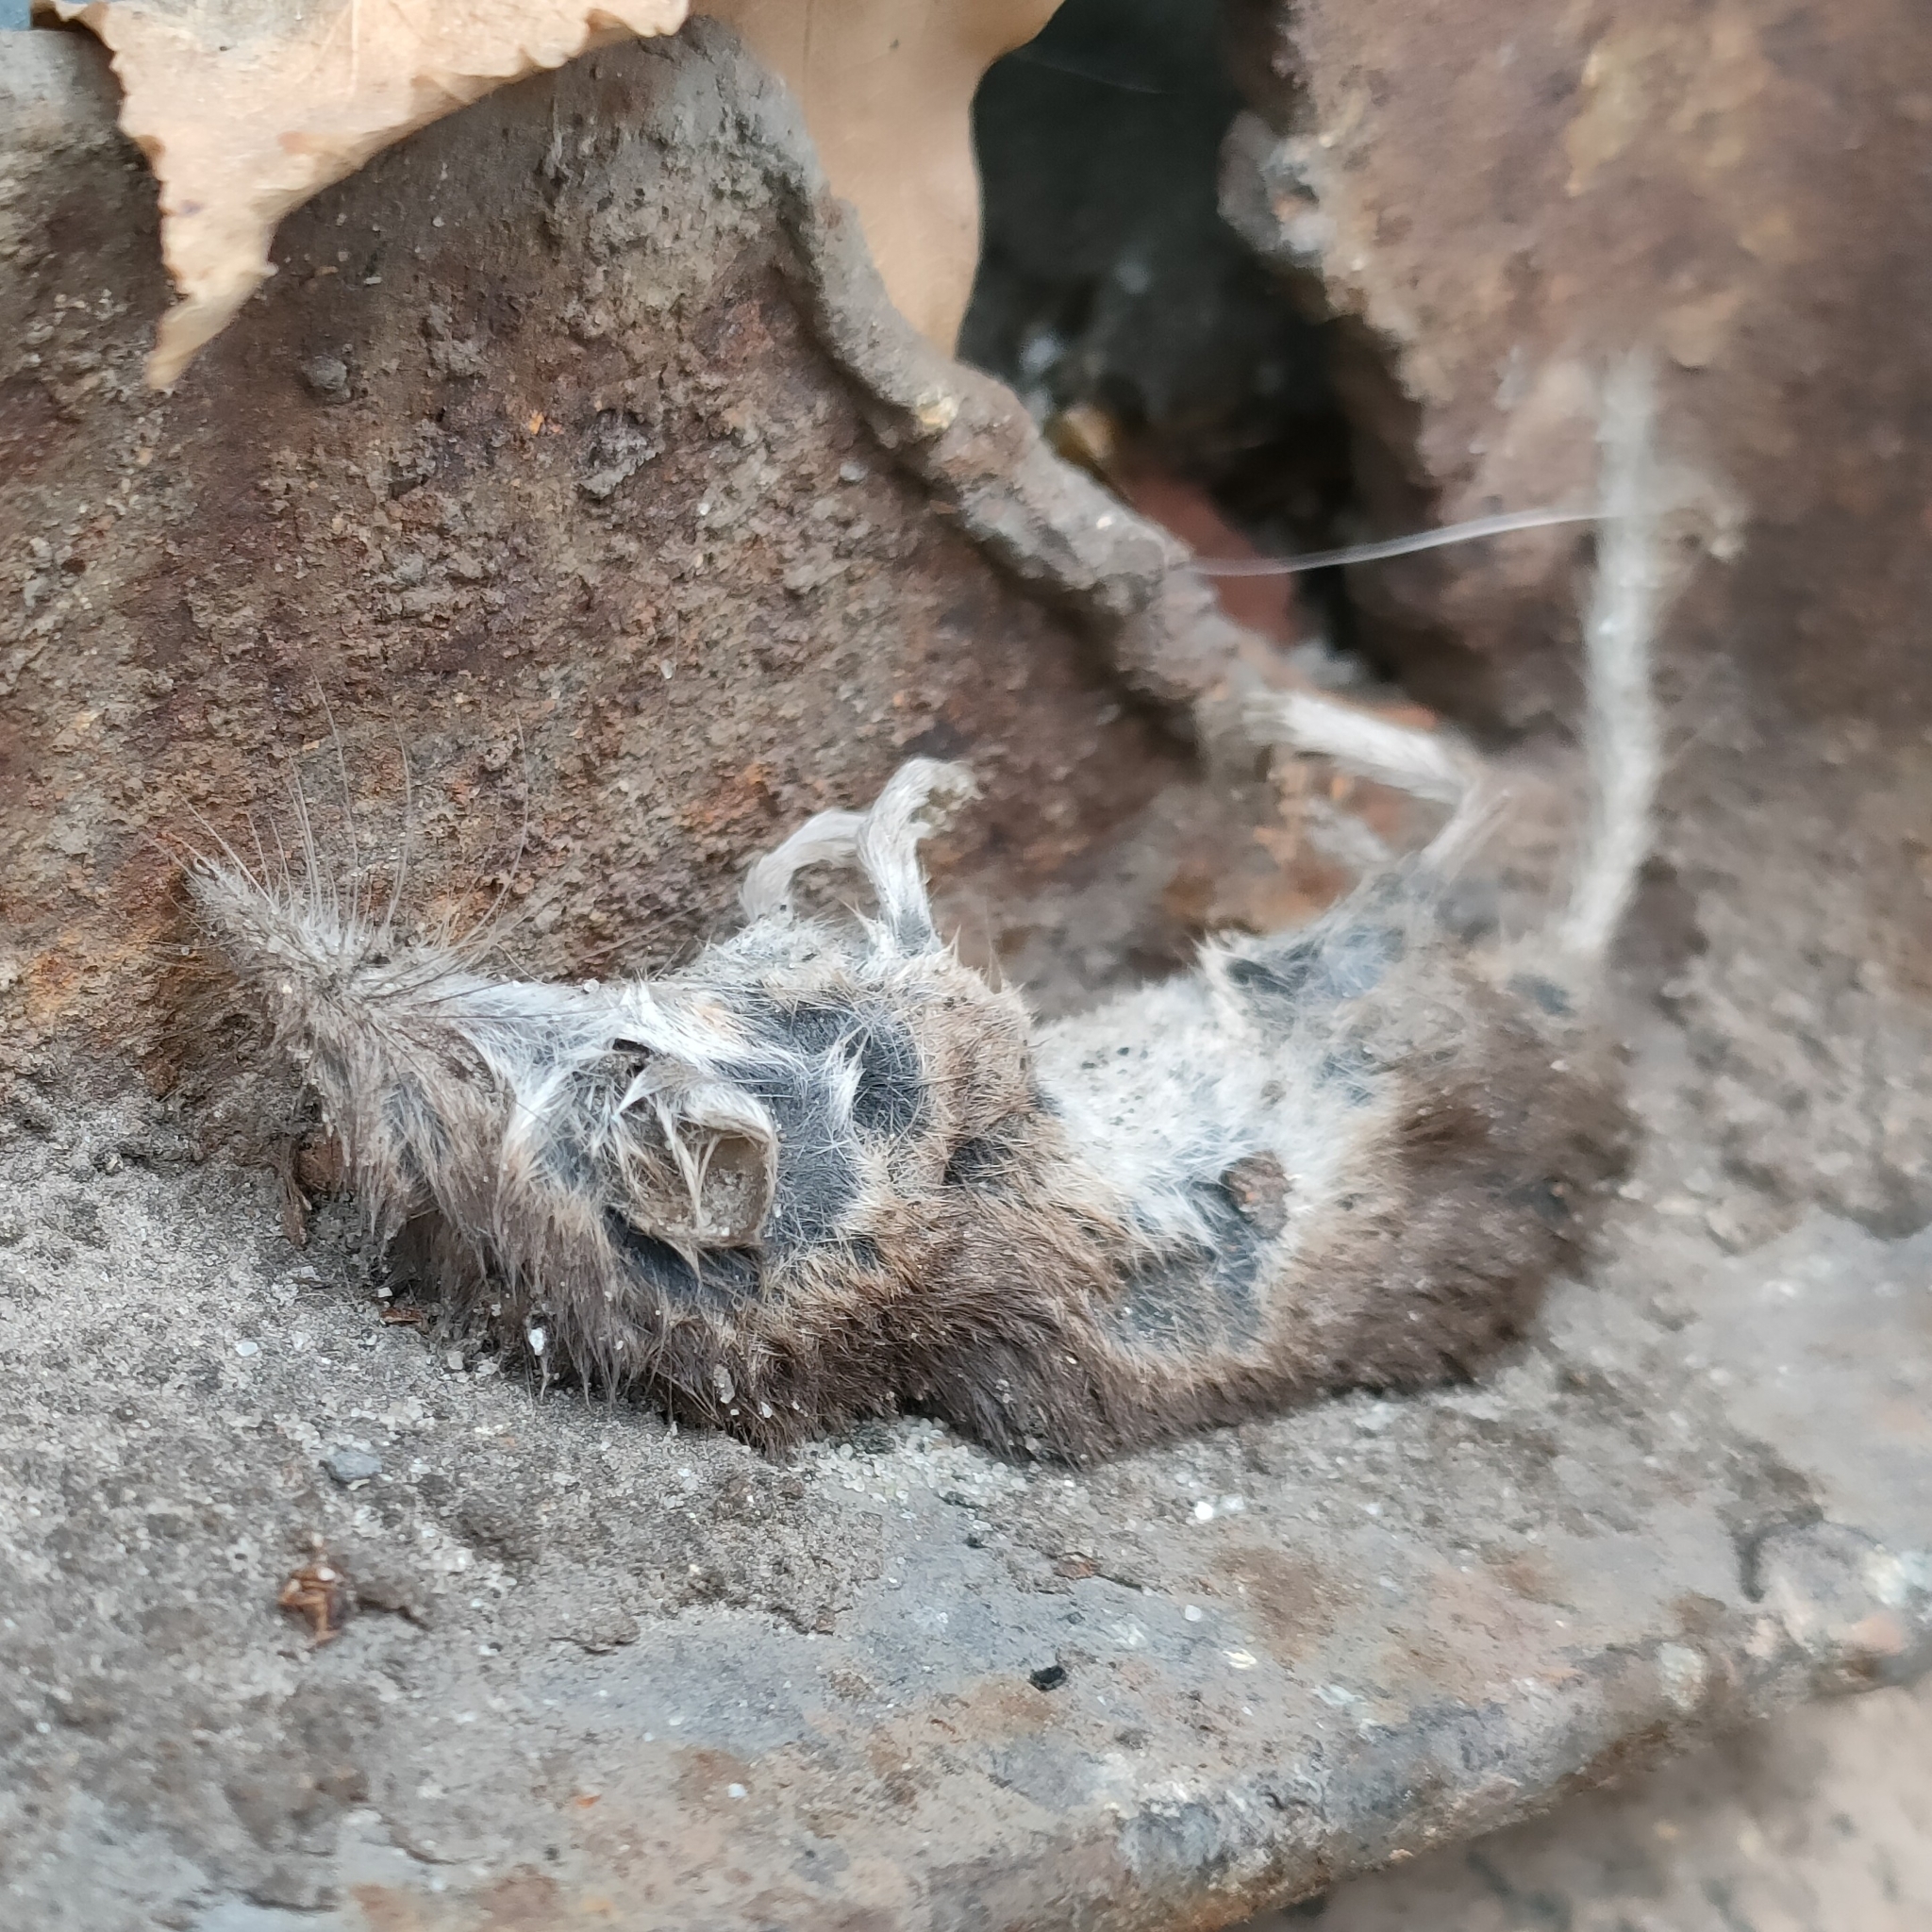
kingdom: Animalia
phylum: Chordata
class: Mammalia
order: Soricomorpha
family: Soricidae
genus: Crocidura
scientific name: Crocidura suaveolens
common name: Lesser white-toothed shrew
